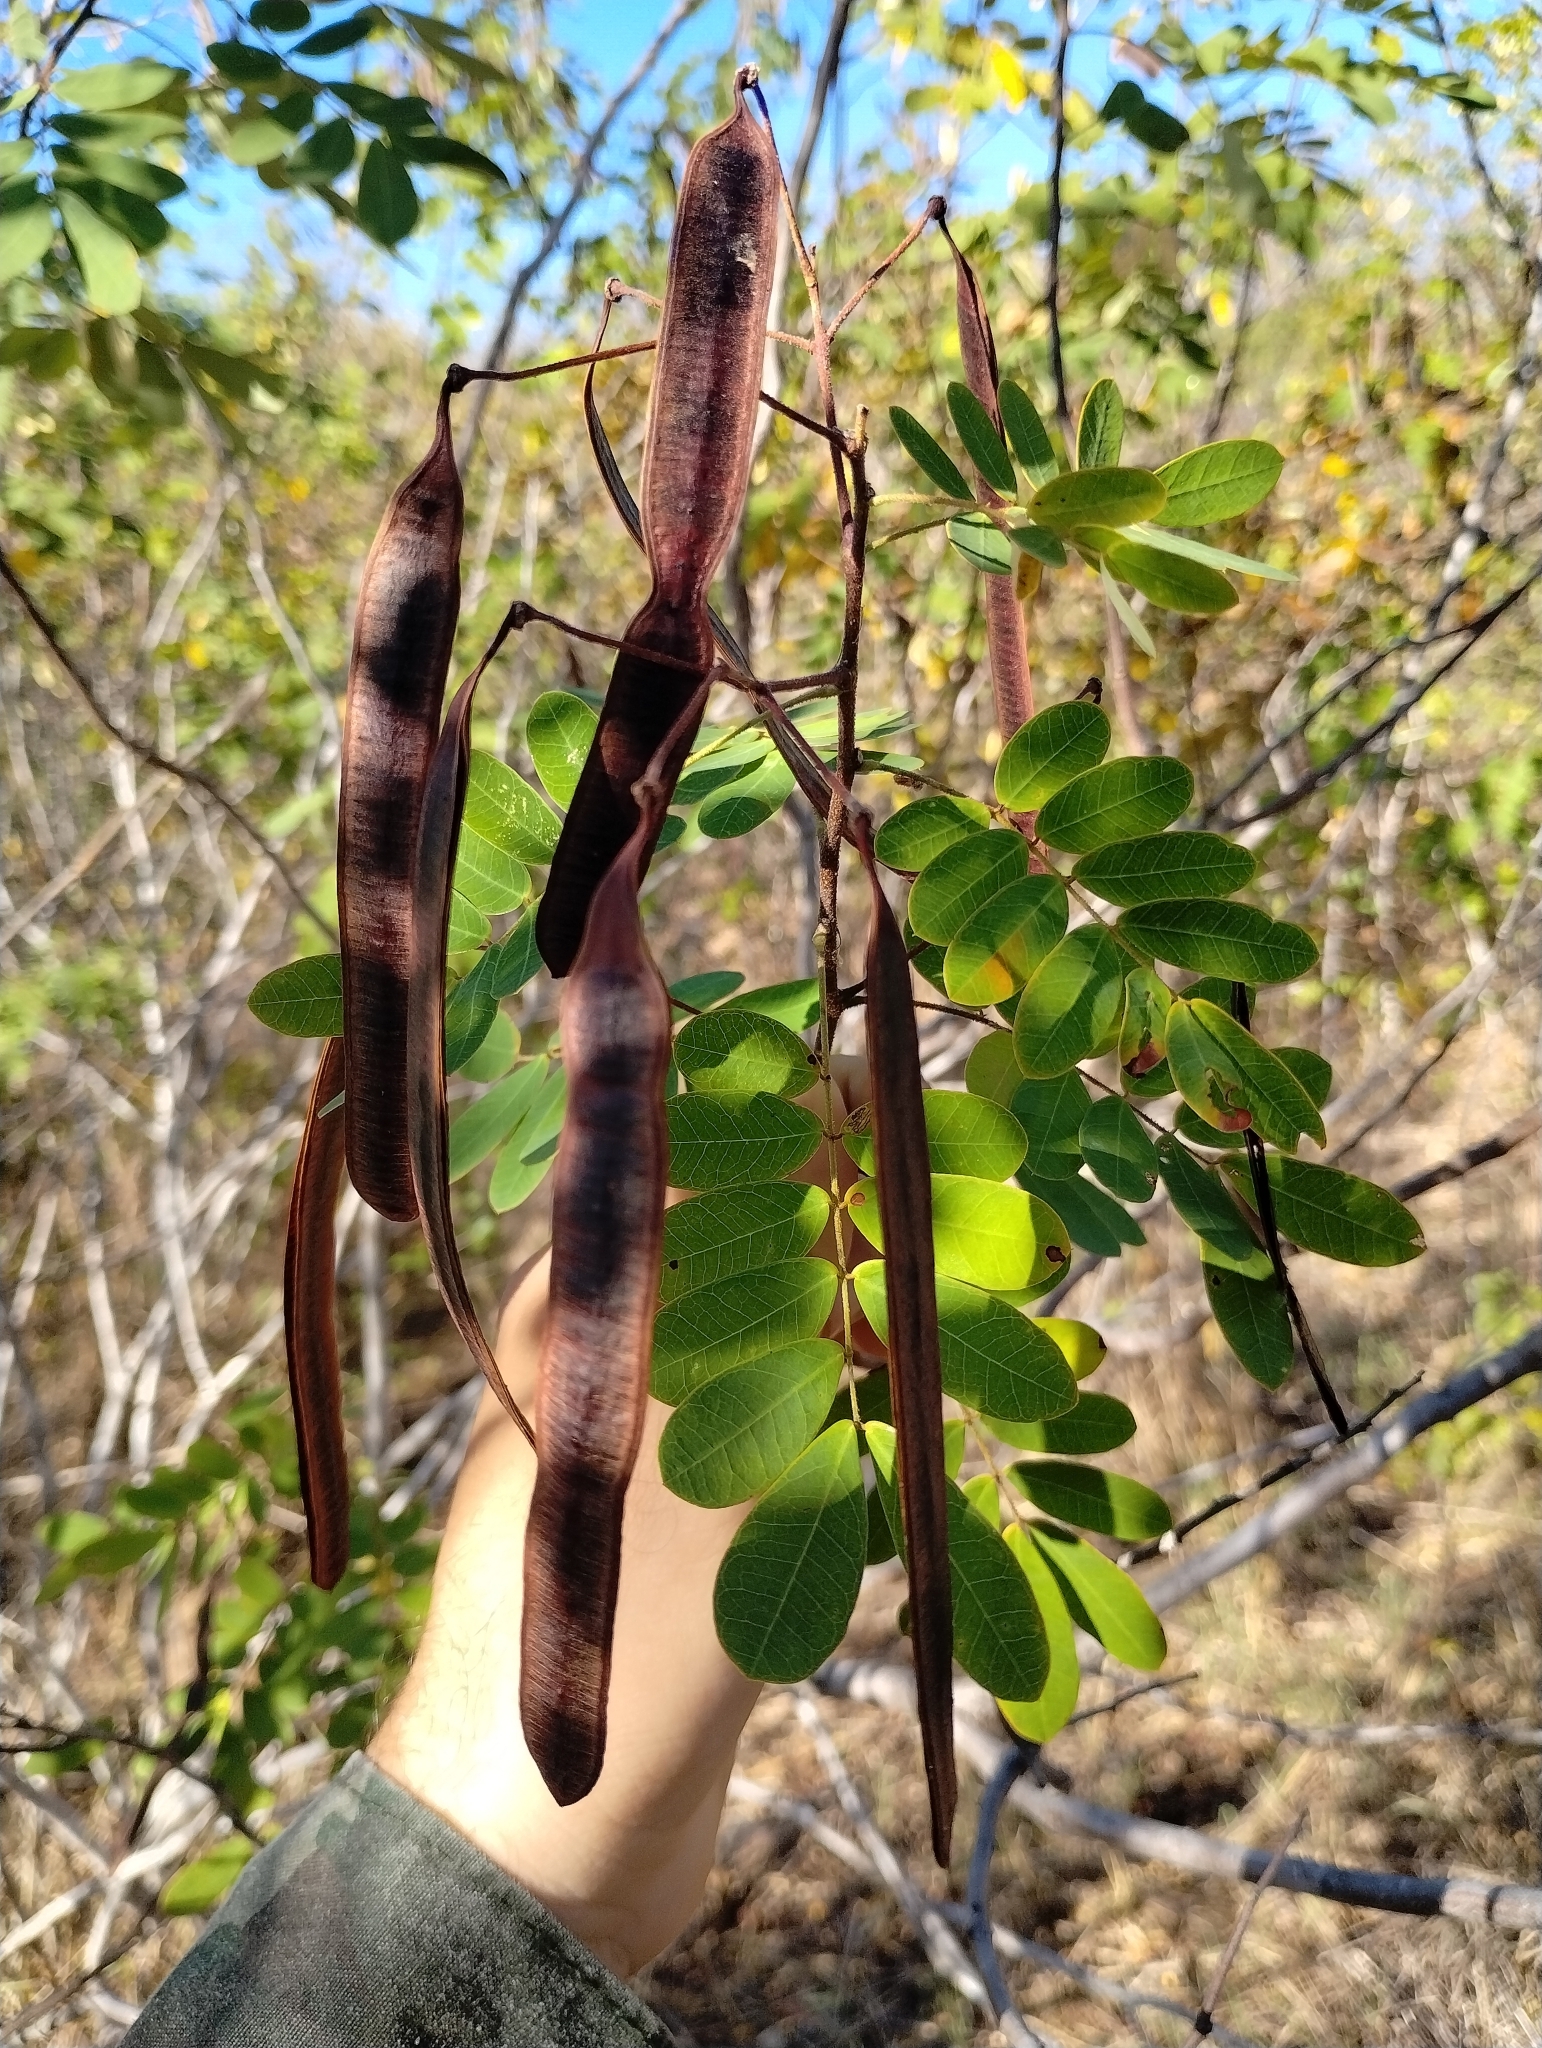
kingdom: Plantae
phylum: Tracheophyta
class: Magnoliopsida
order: Fabales
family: Fabaceae
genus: Senna
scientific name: Senna trachypus
